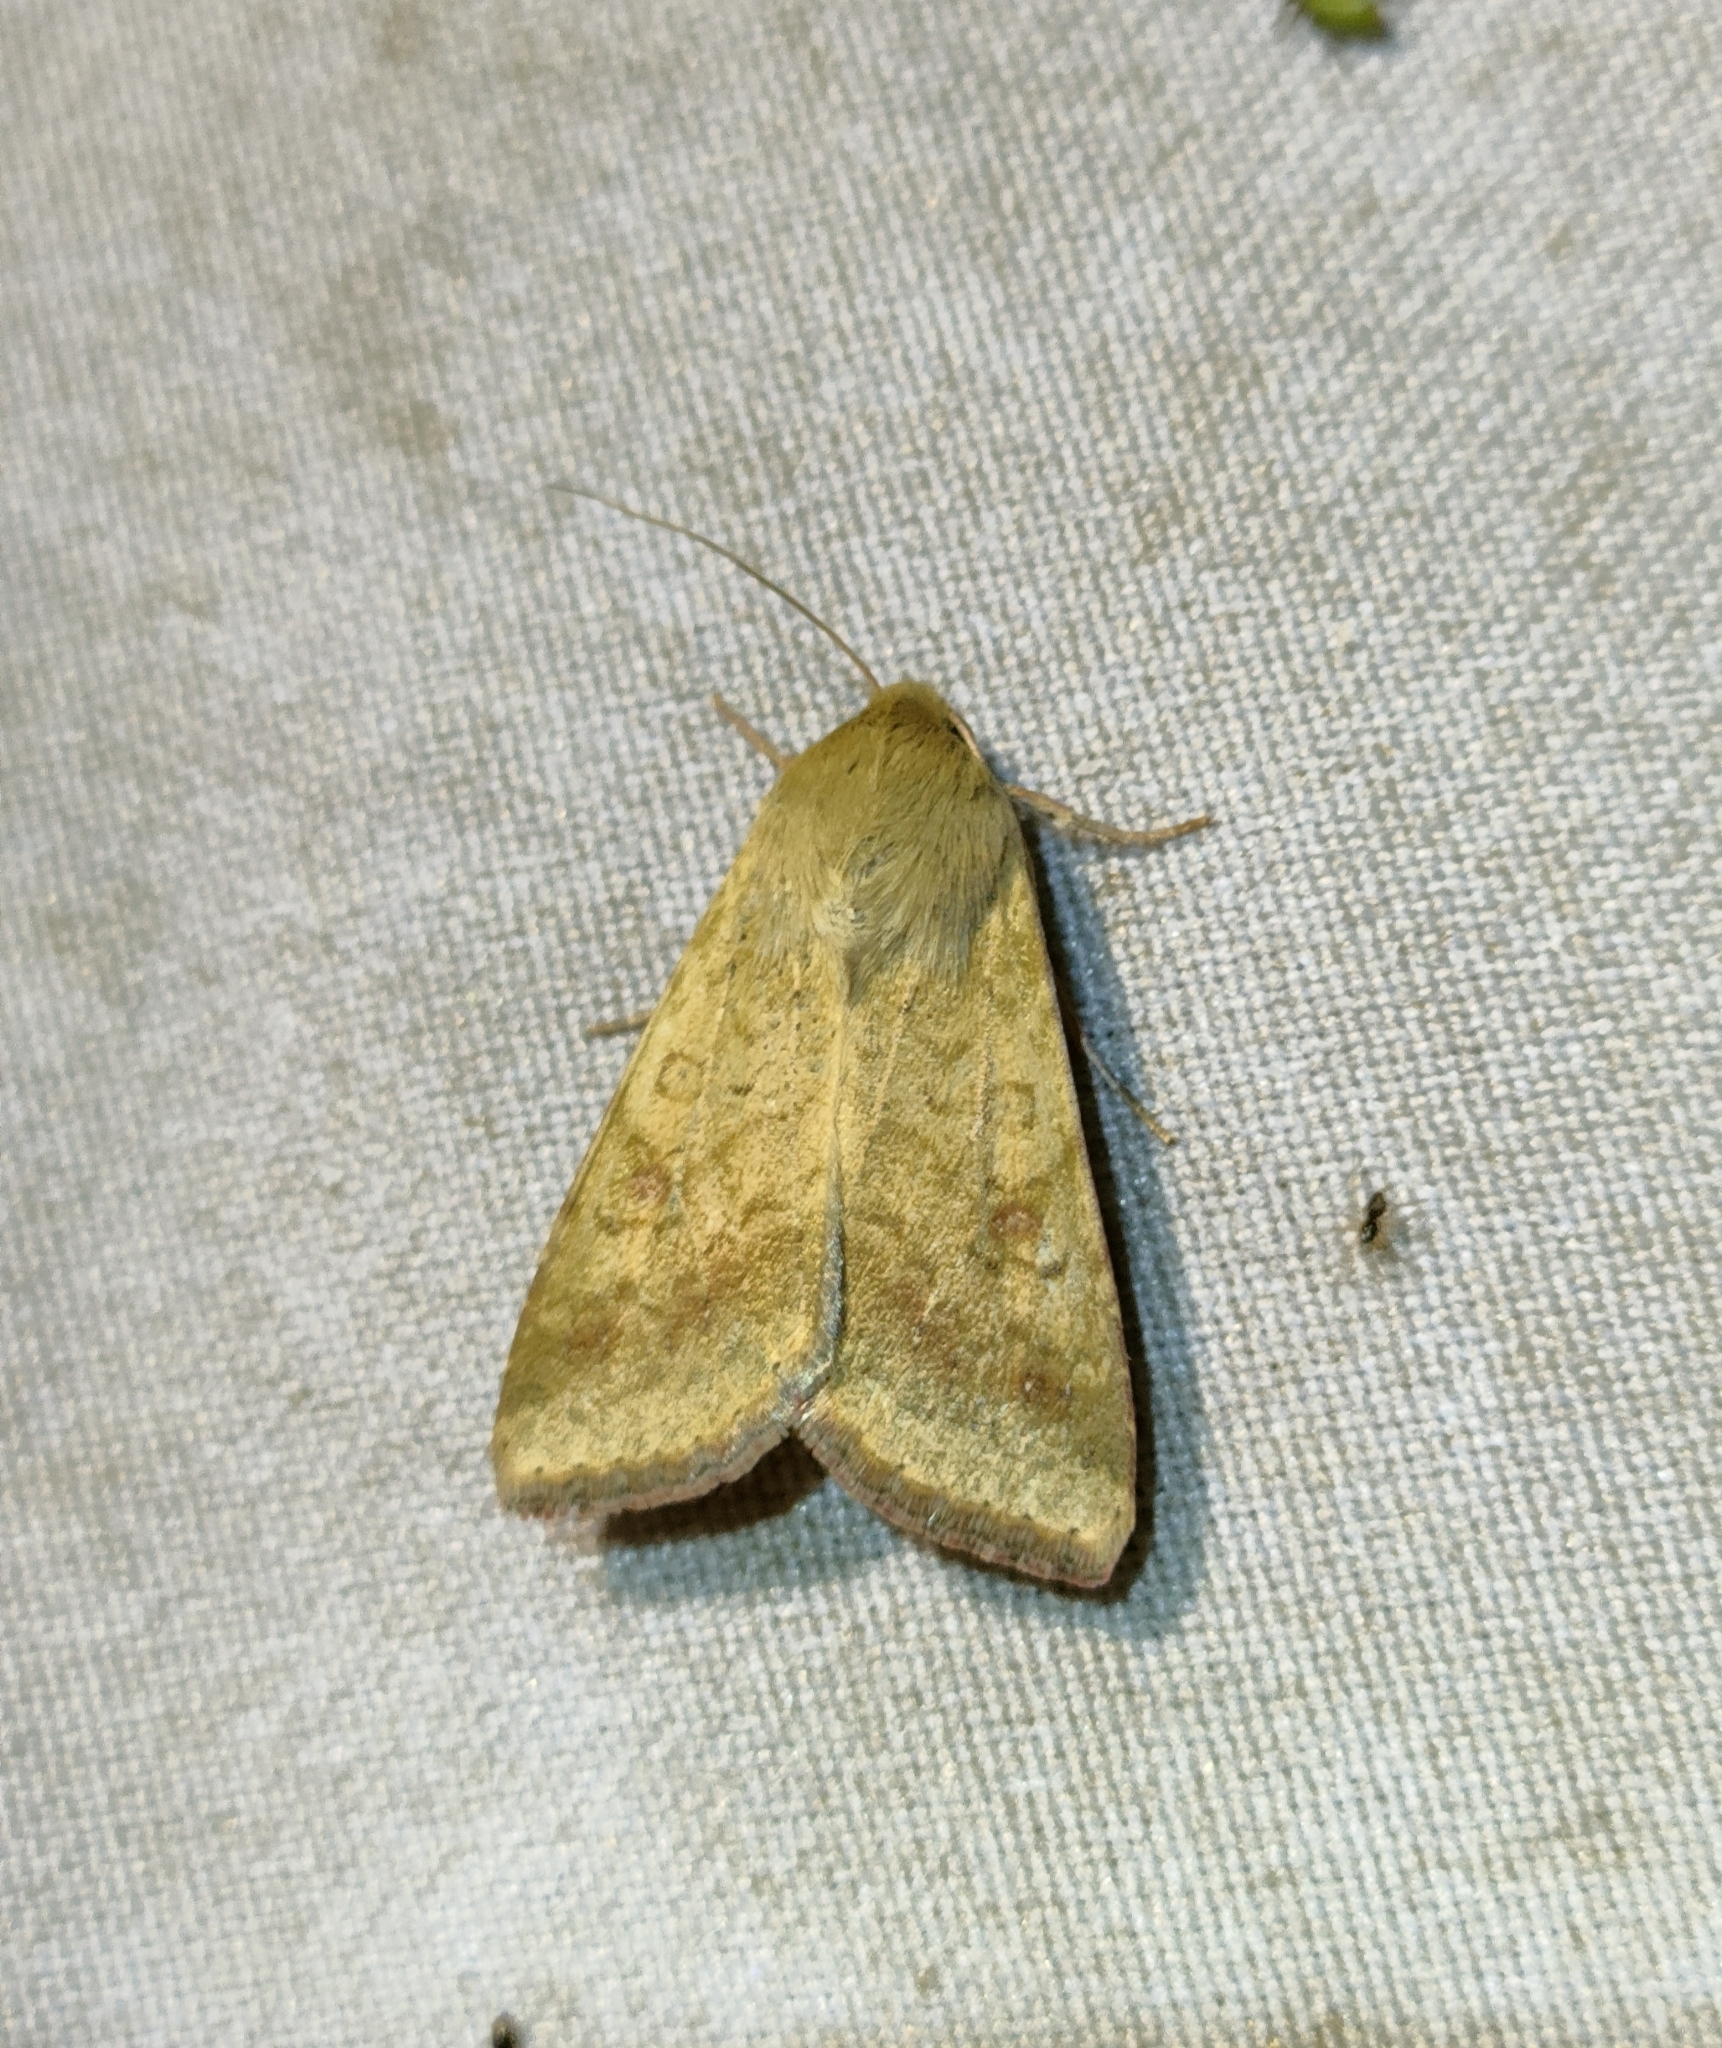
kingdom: Animalia
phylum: Arthropoda
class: Insecta
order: Lepidoptera
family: Noctuidae
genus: Helicoverpa
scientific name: Helicoverpa armigera
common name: Cotton bollworm
